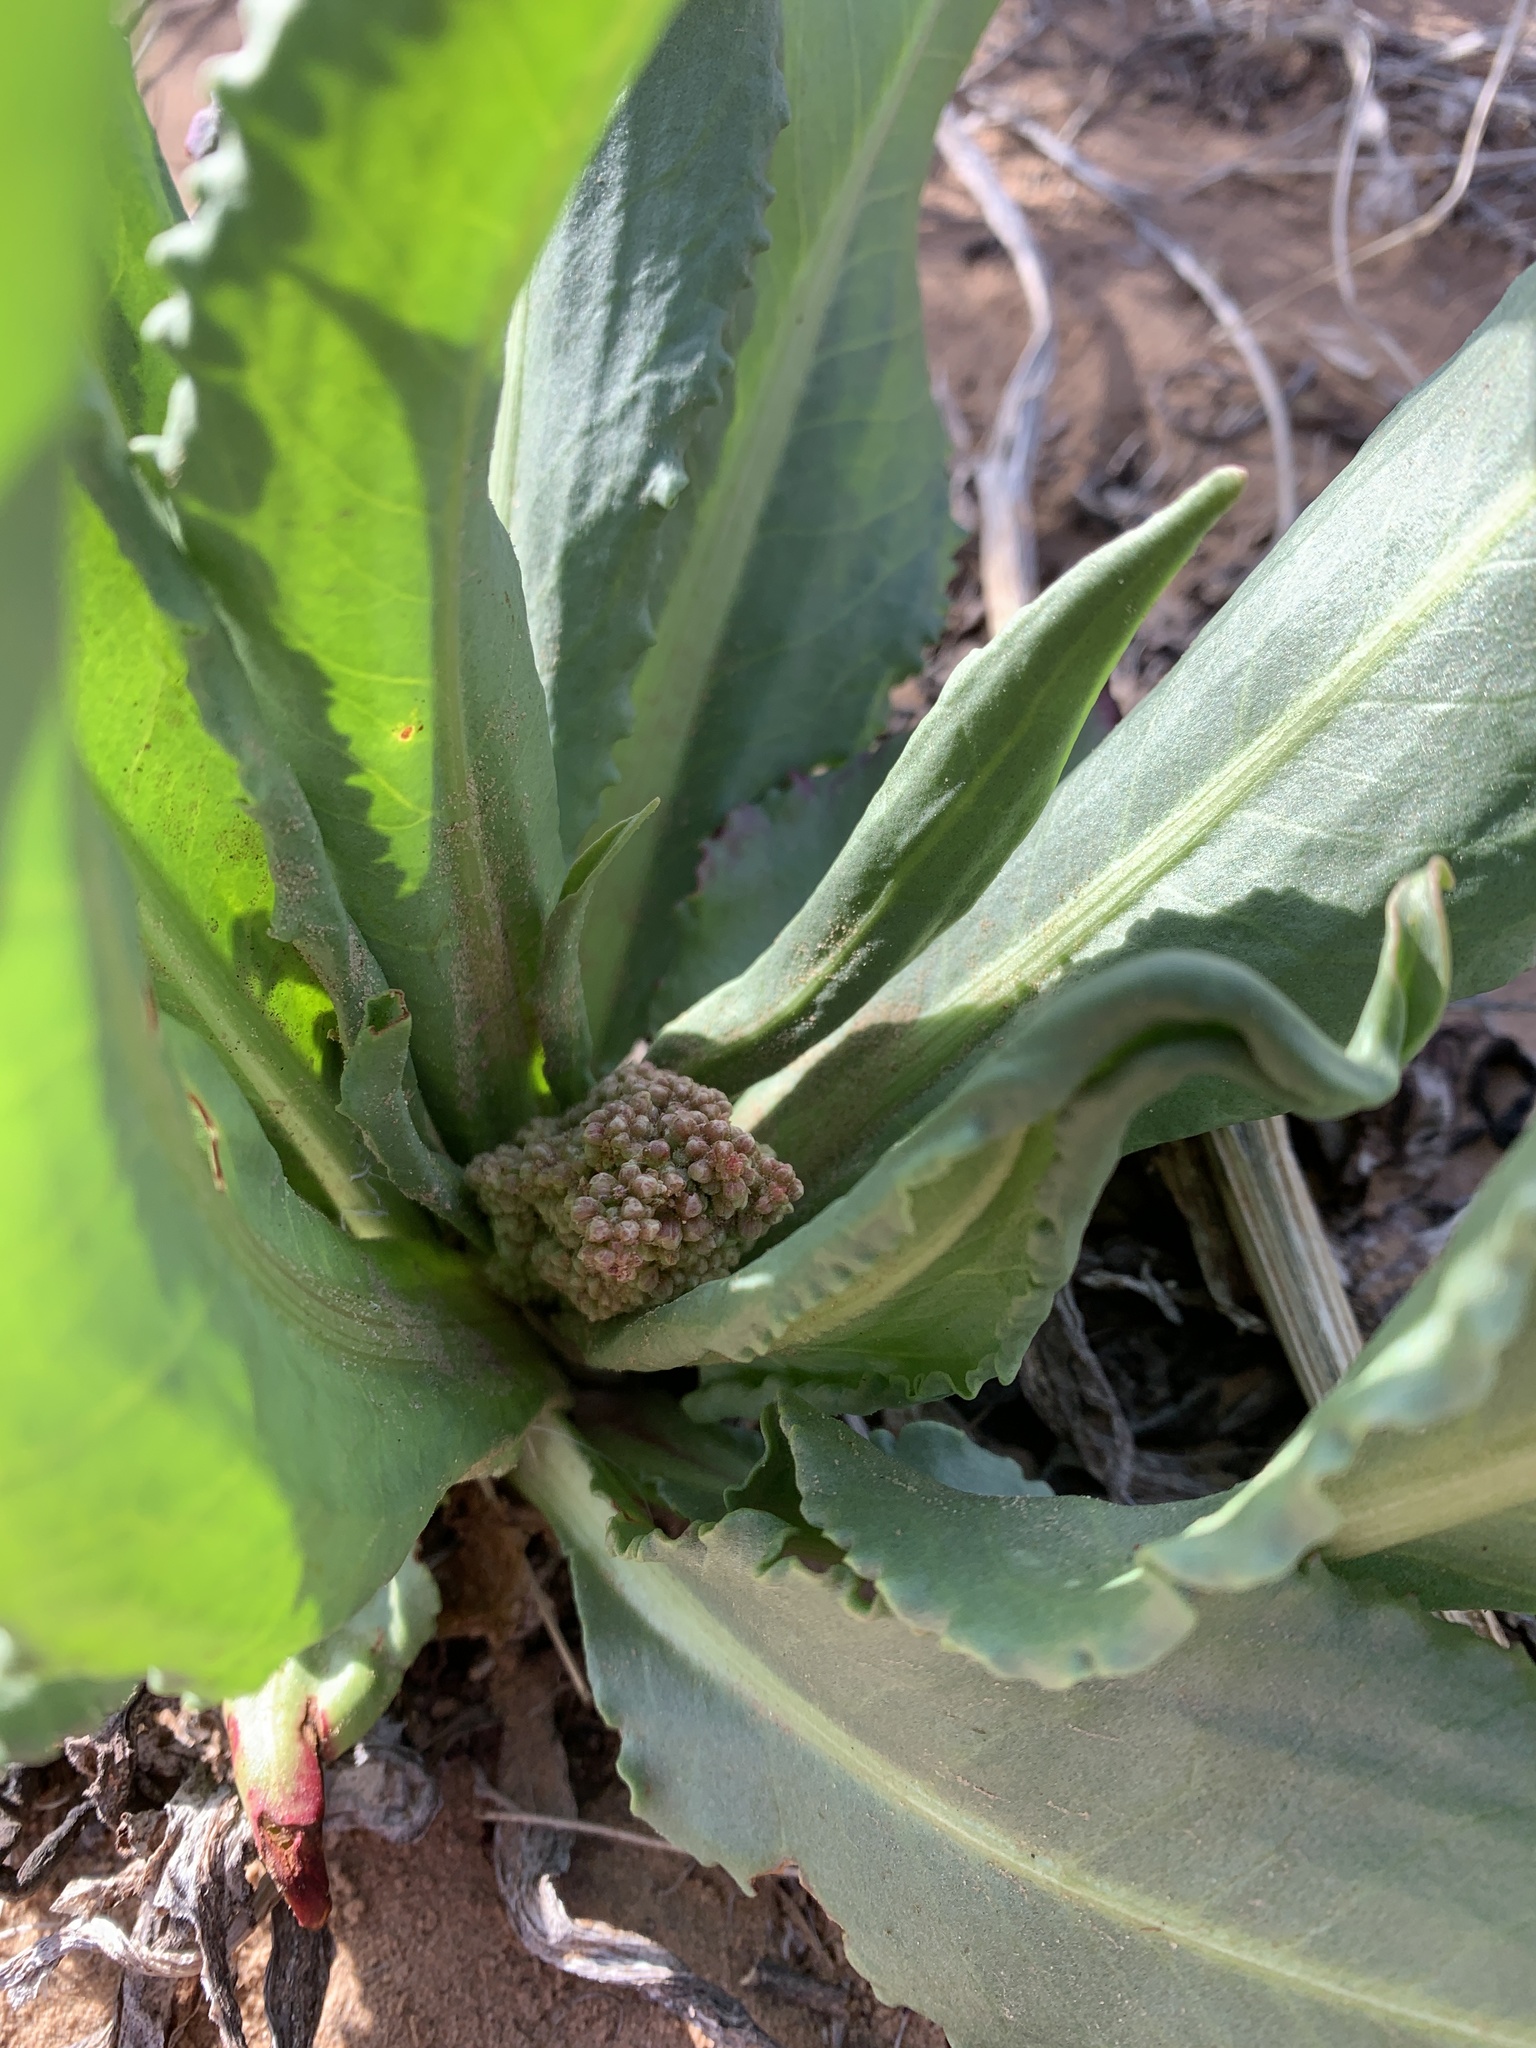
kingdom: Plantae
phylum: Tracheophyta
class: Magnoliopsida
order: Caryophyllales
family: Polygonaceae
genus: Rumex
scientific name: Rumex hymenosepalus
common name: Ganagra
